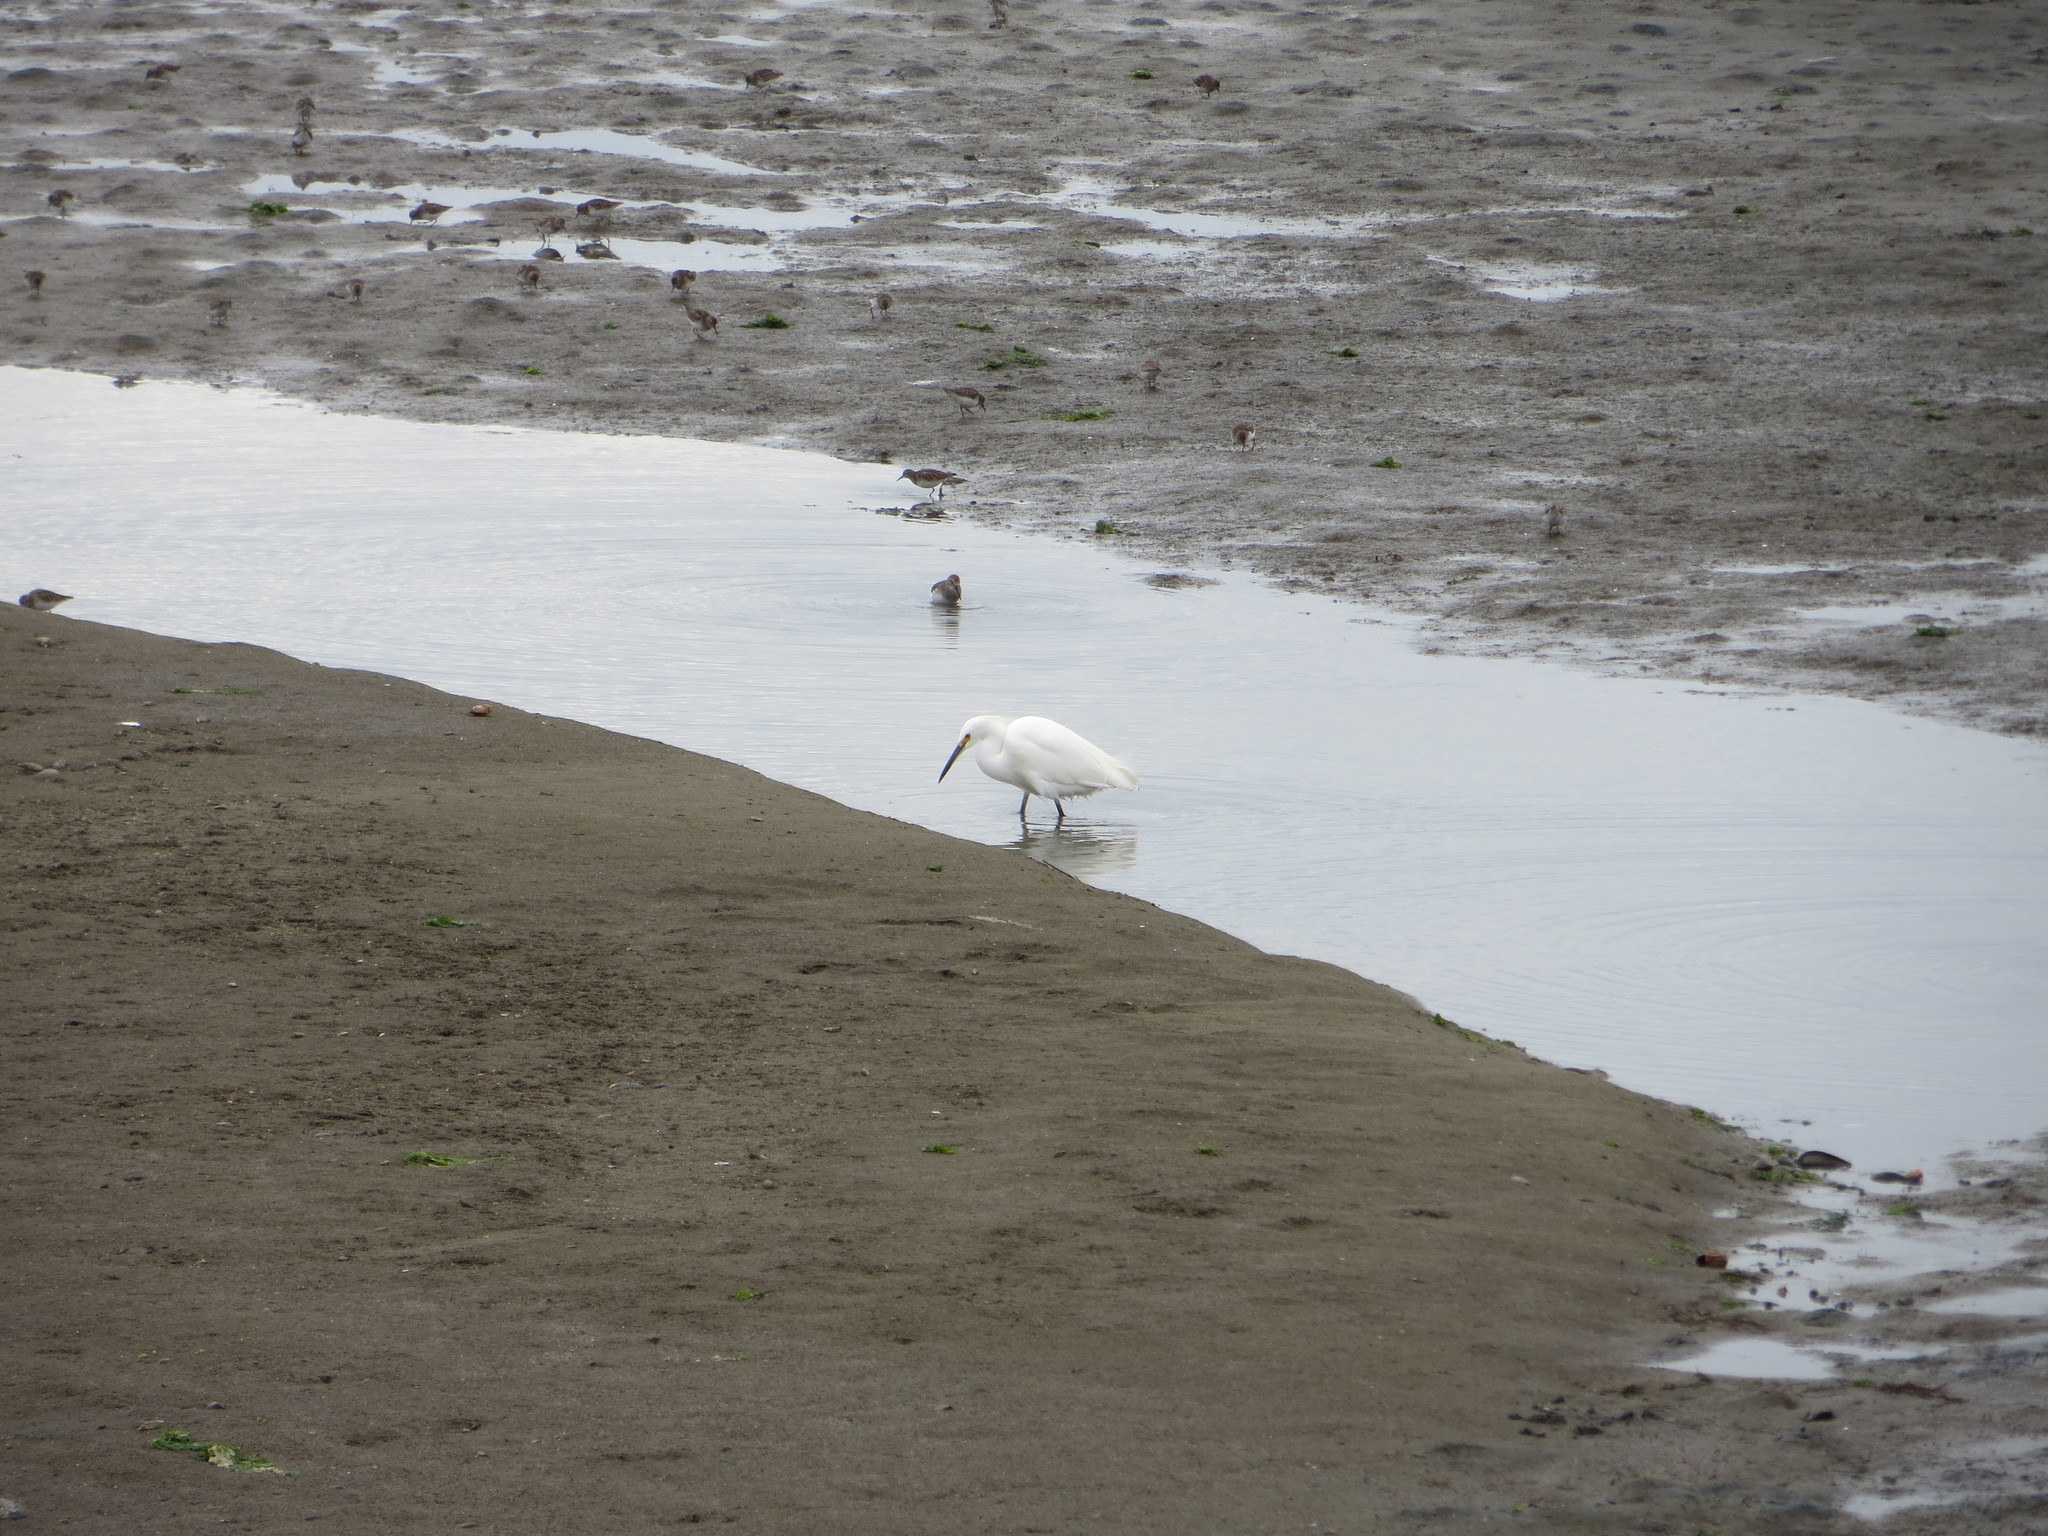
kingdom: Animalia
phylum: Chordata
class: Aves
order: Pelecaniformes
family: Ardeidae
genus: Egretta
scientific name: Egretta thula
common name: Snowy egret
